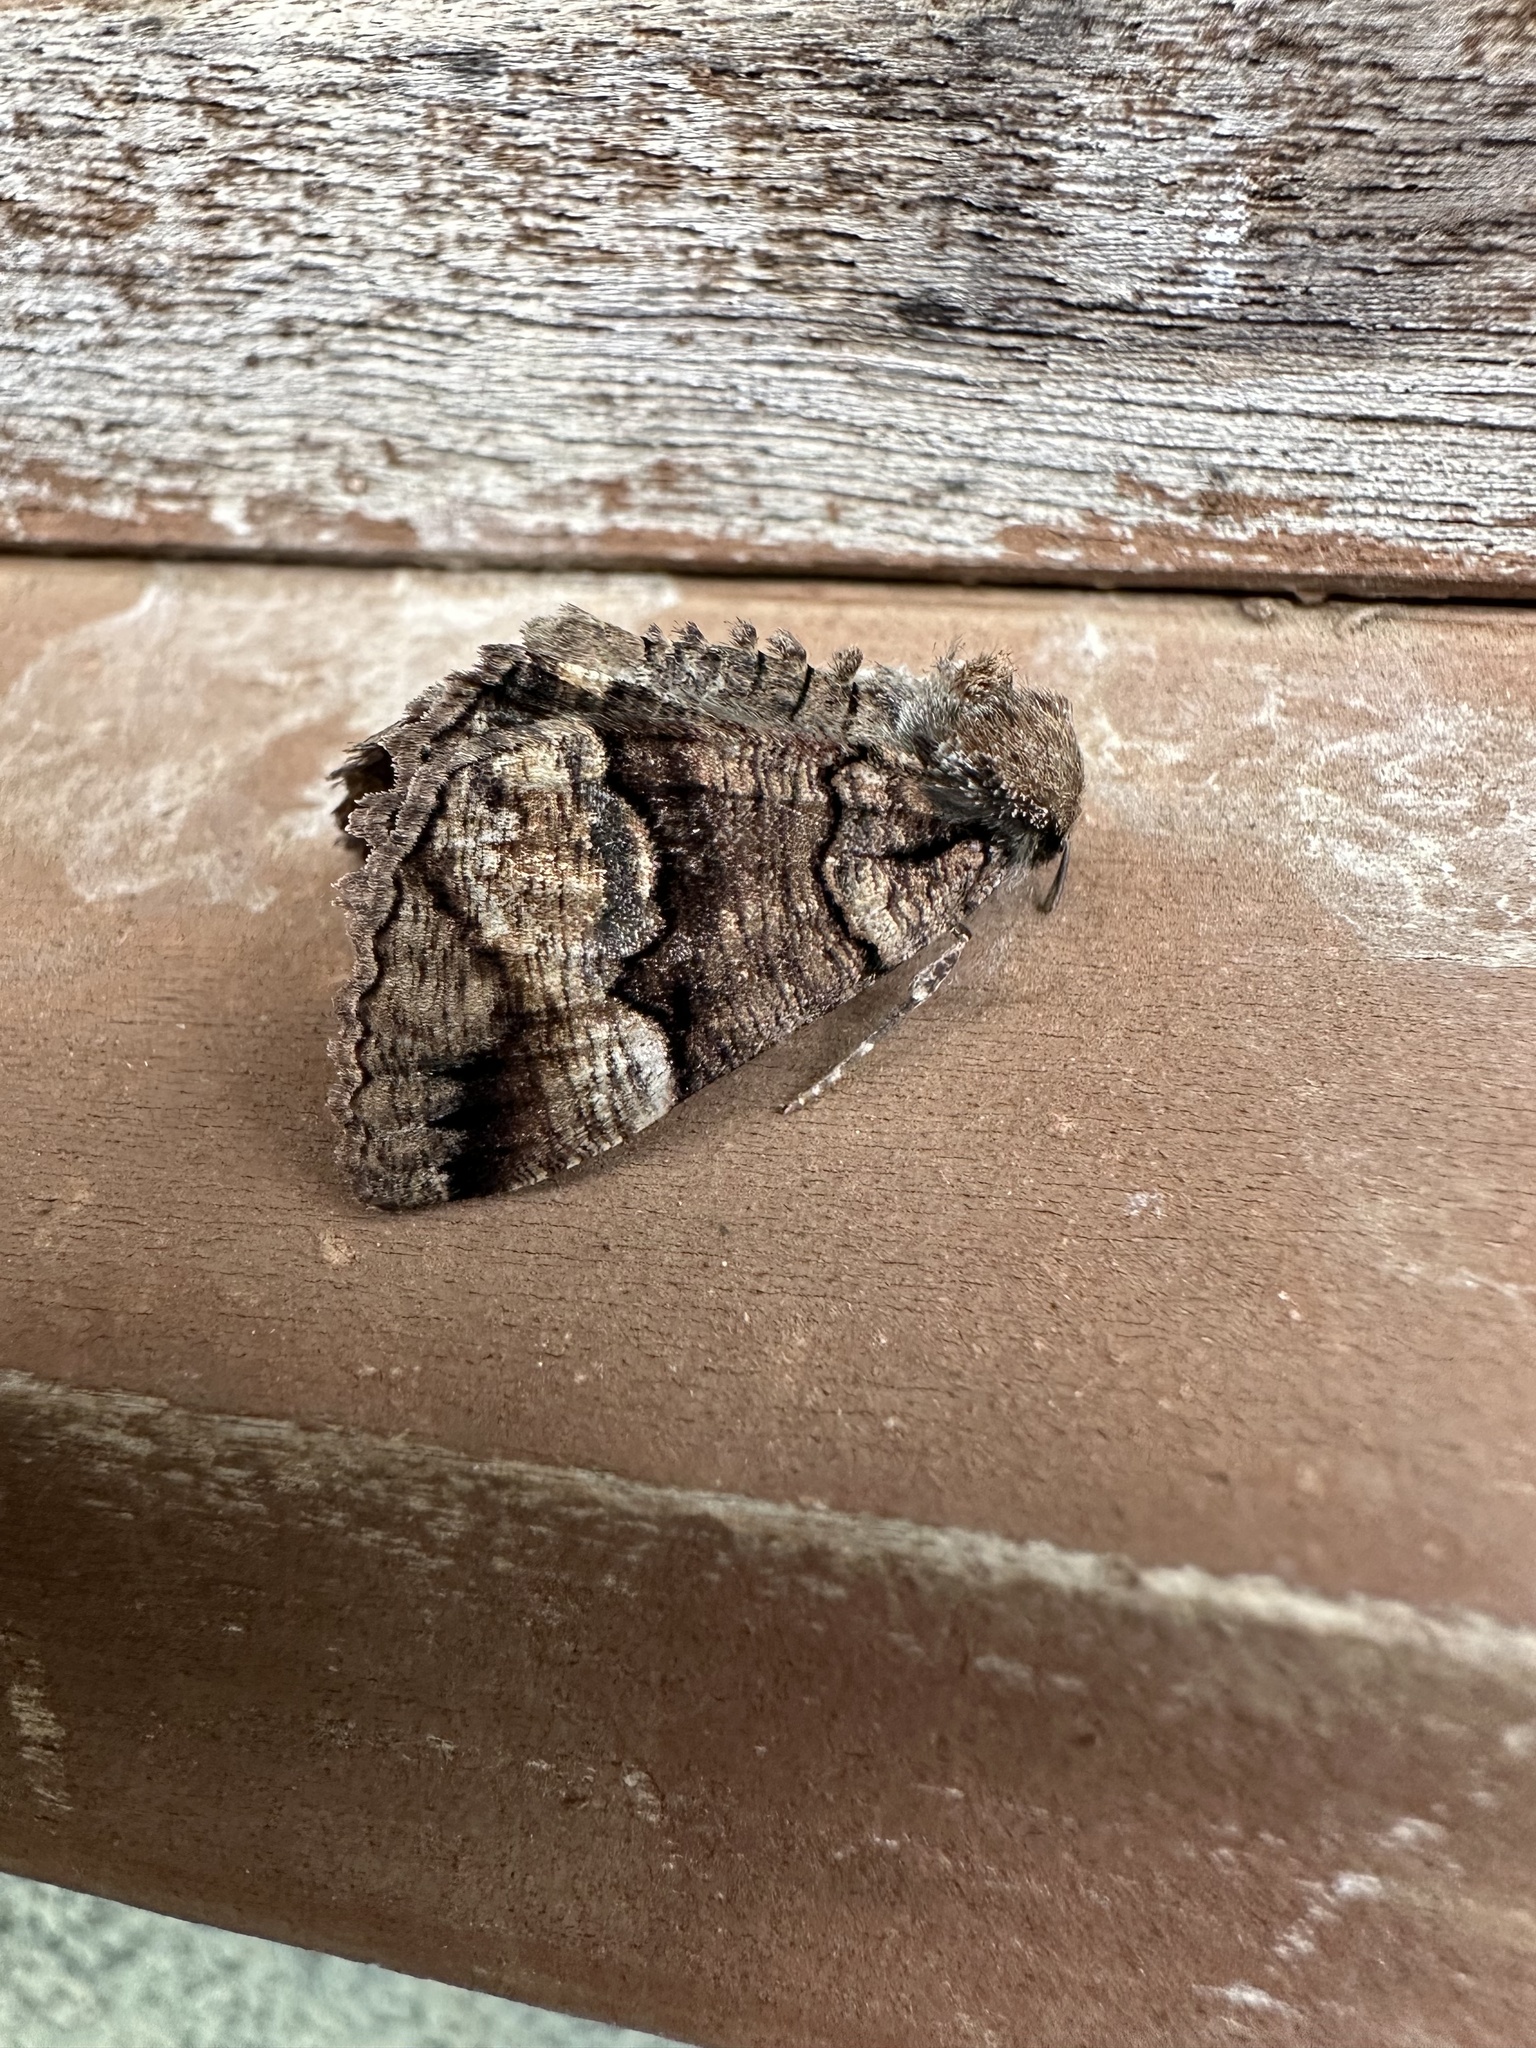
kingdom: Animalia
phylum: Arthropoda
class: Insecta
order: Lepidoptera
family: Geometridae
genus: Catophoenissa
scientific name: Catophoenissa dibapha
